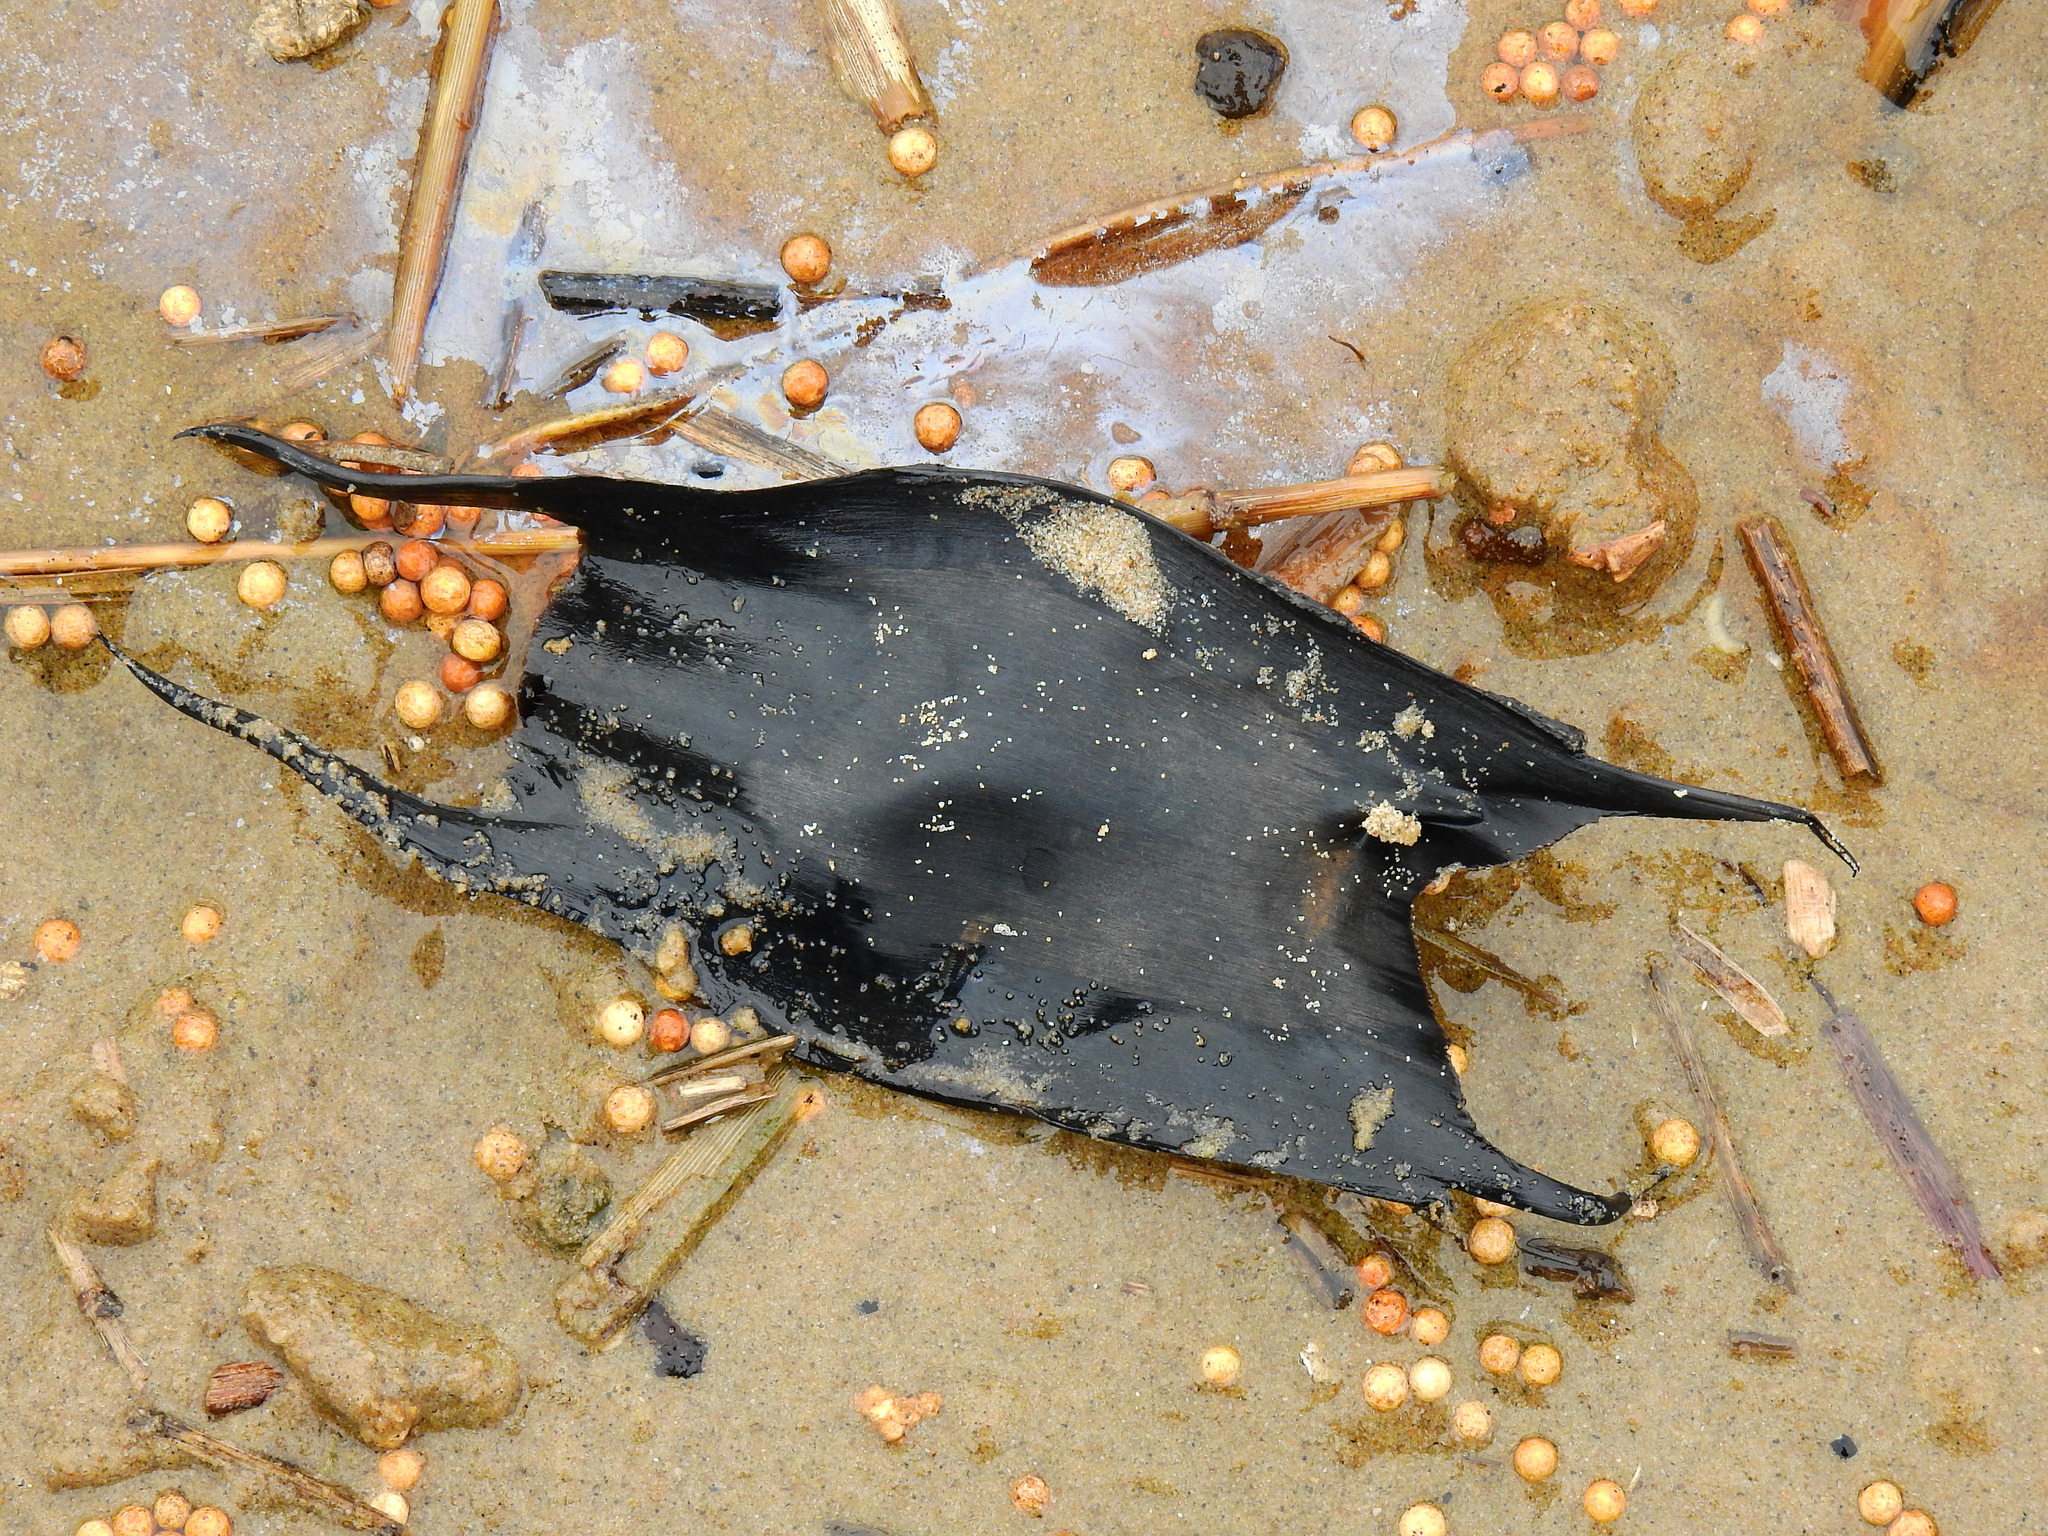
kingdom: Animalia
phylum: Chordata
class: Elasmobranchii
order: Rajiformes
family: Rajidae
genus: Raja
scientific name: Raja clavata
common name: Thornback ray
